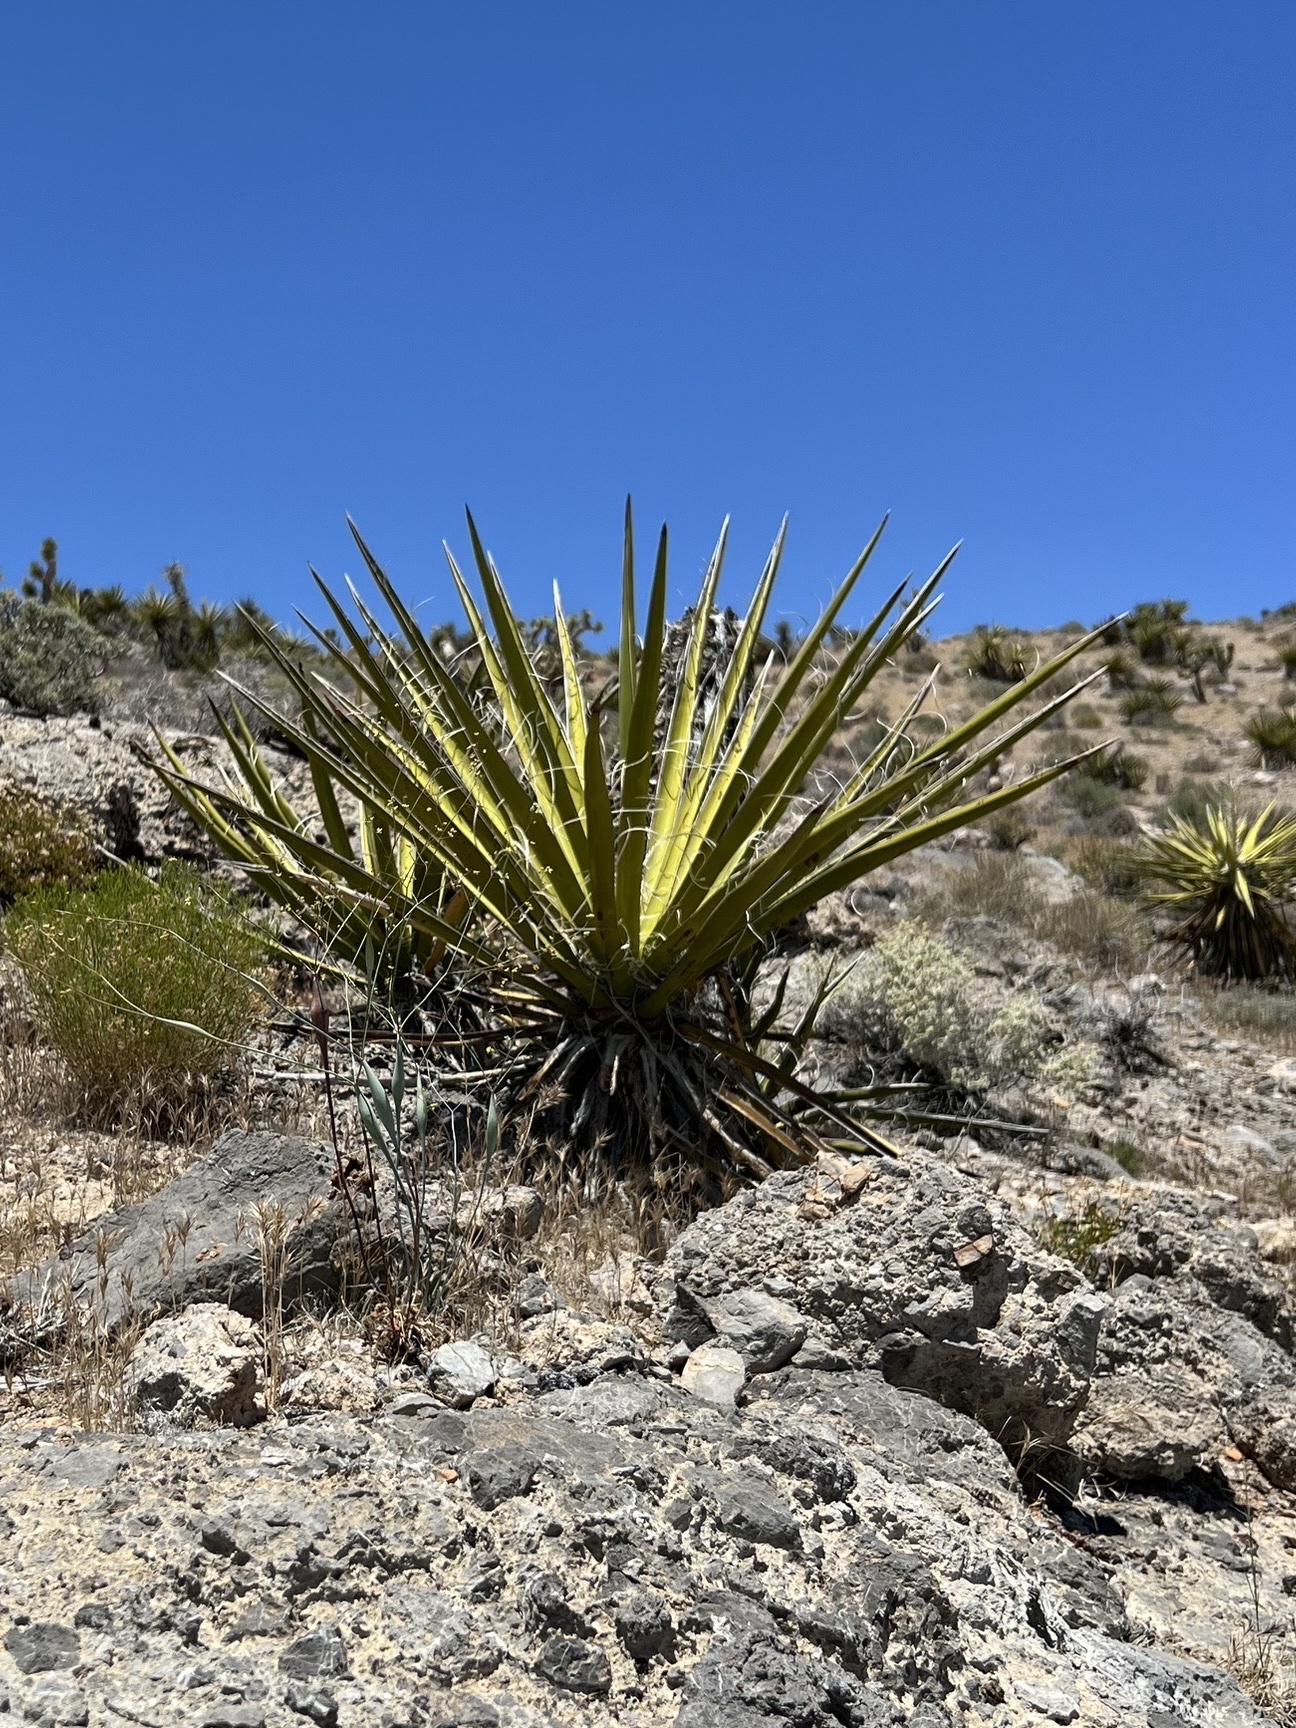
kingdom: Plantae
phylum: Tracheophyta
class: Liliopsida
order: Asparagales
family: Asparagaceae
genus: Yucca
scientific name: Yucca schidigera
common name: Mojave yucca
